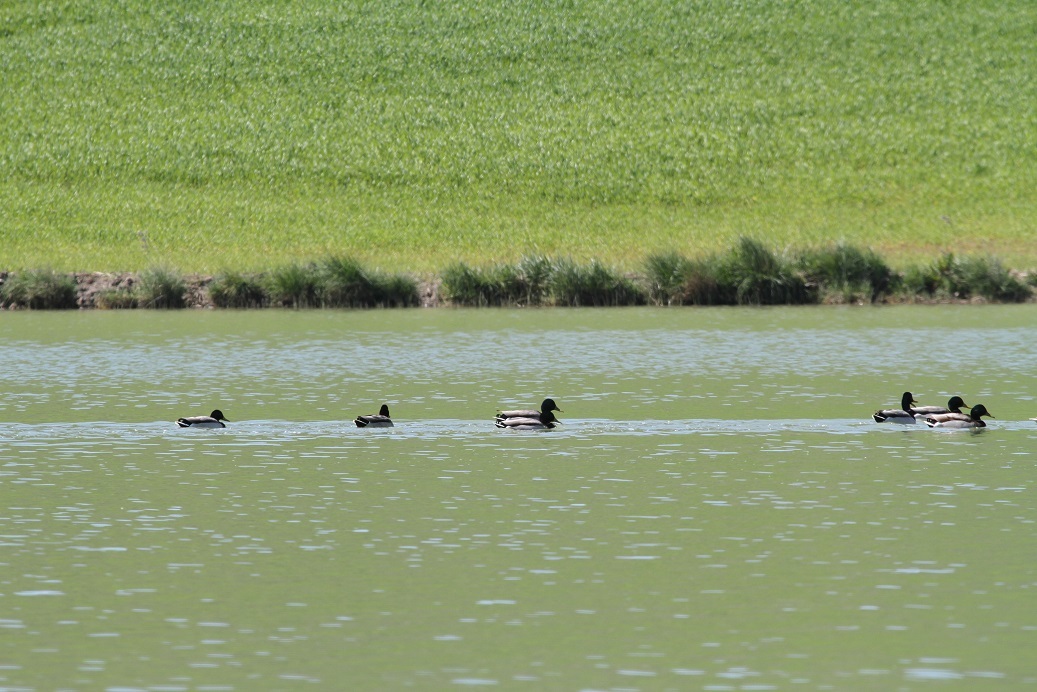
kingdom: Animalia
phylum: Chordata
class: Aves
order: Anseriformes
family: Anatidae
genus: Anas
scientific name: Anas platyrhynchos
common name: Mallard
